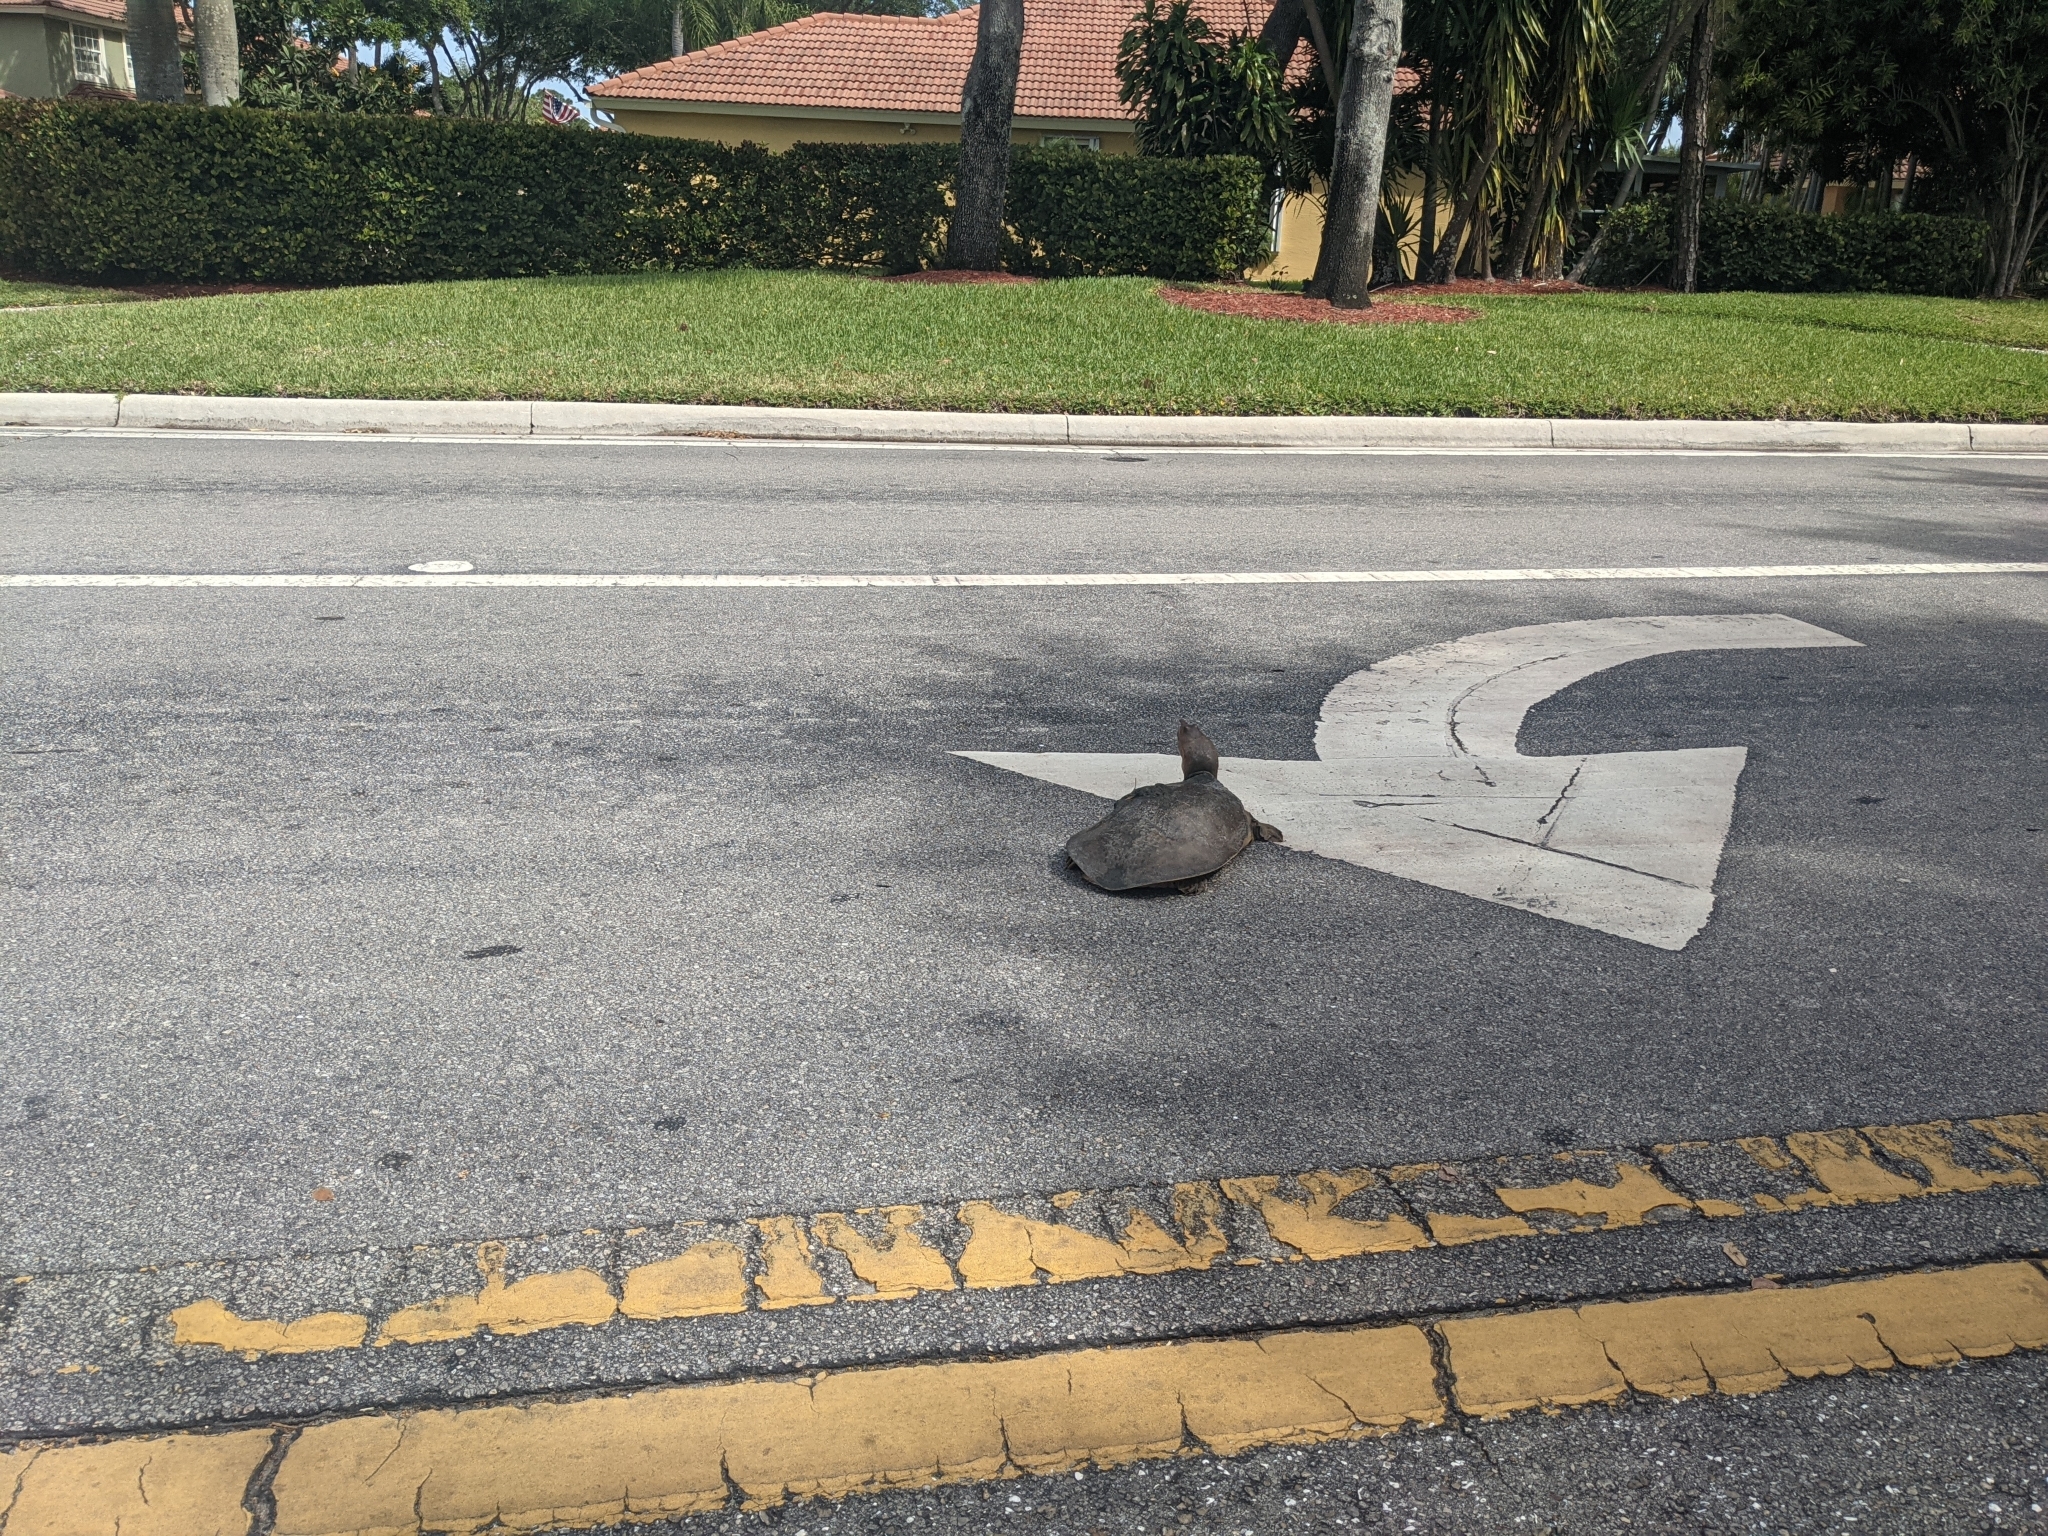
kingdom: Animalia
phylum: Chordata
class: Testudines
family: Trionychidae
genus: Apalone
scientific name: Apalone ferox
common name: Florida softshell turtle
